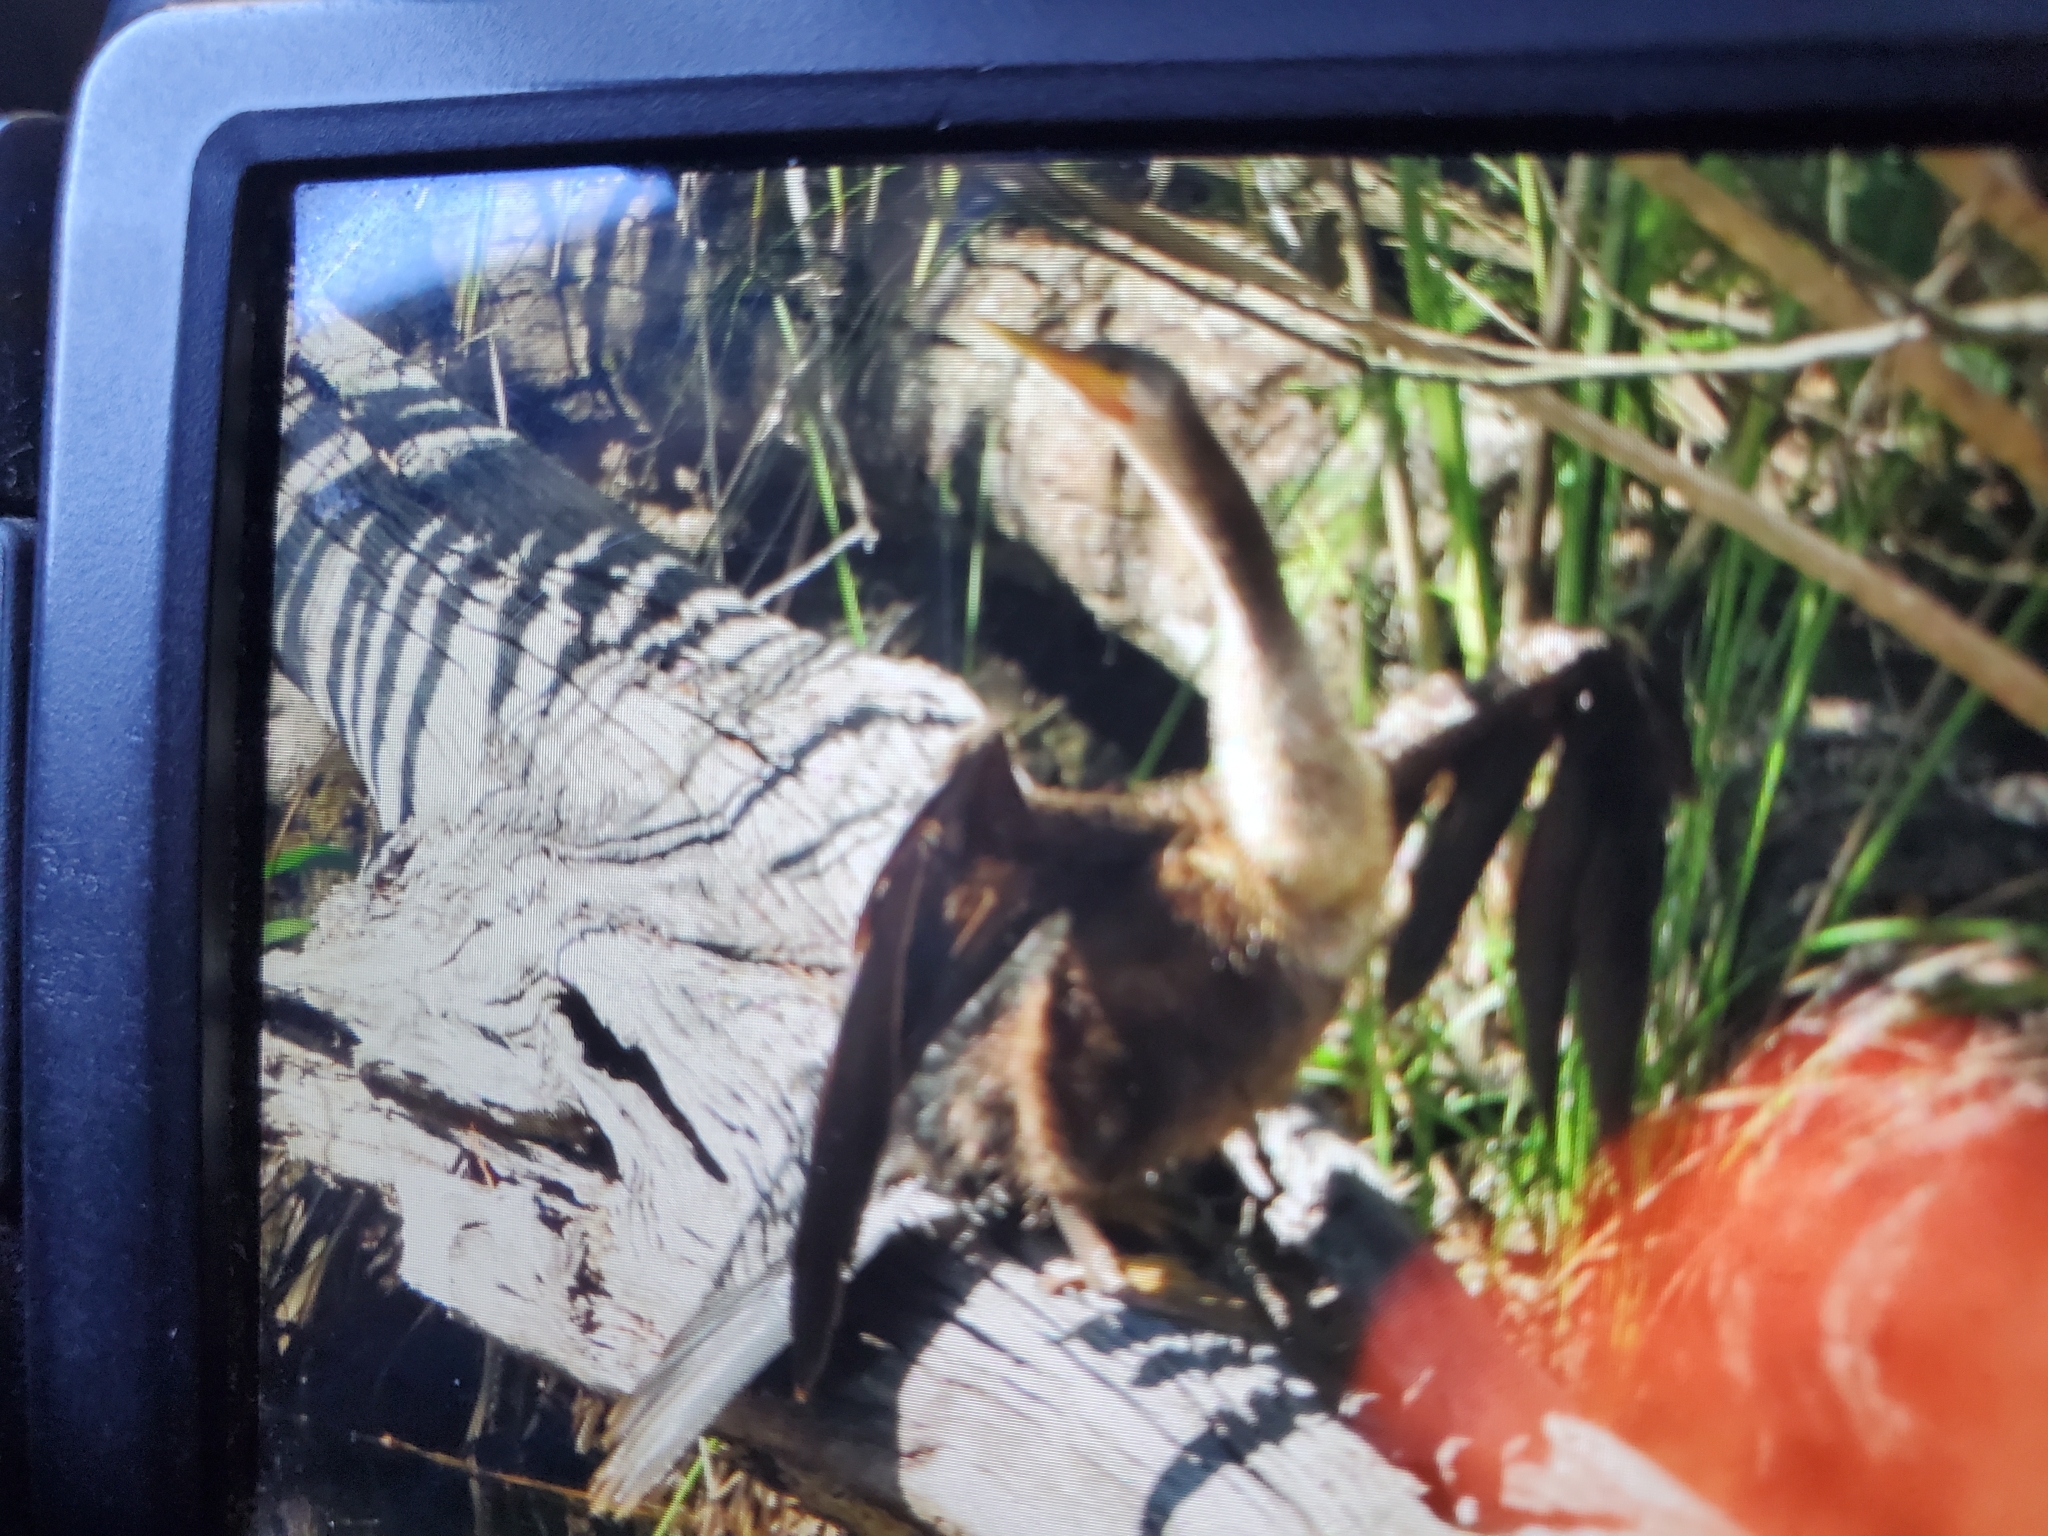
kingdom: Animalia
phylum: Chordata
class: Aves
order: Suliformes
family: Anhingidae
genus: Anhinga
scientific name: Anhinga anhinga
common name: Anhinga
